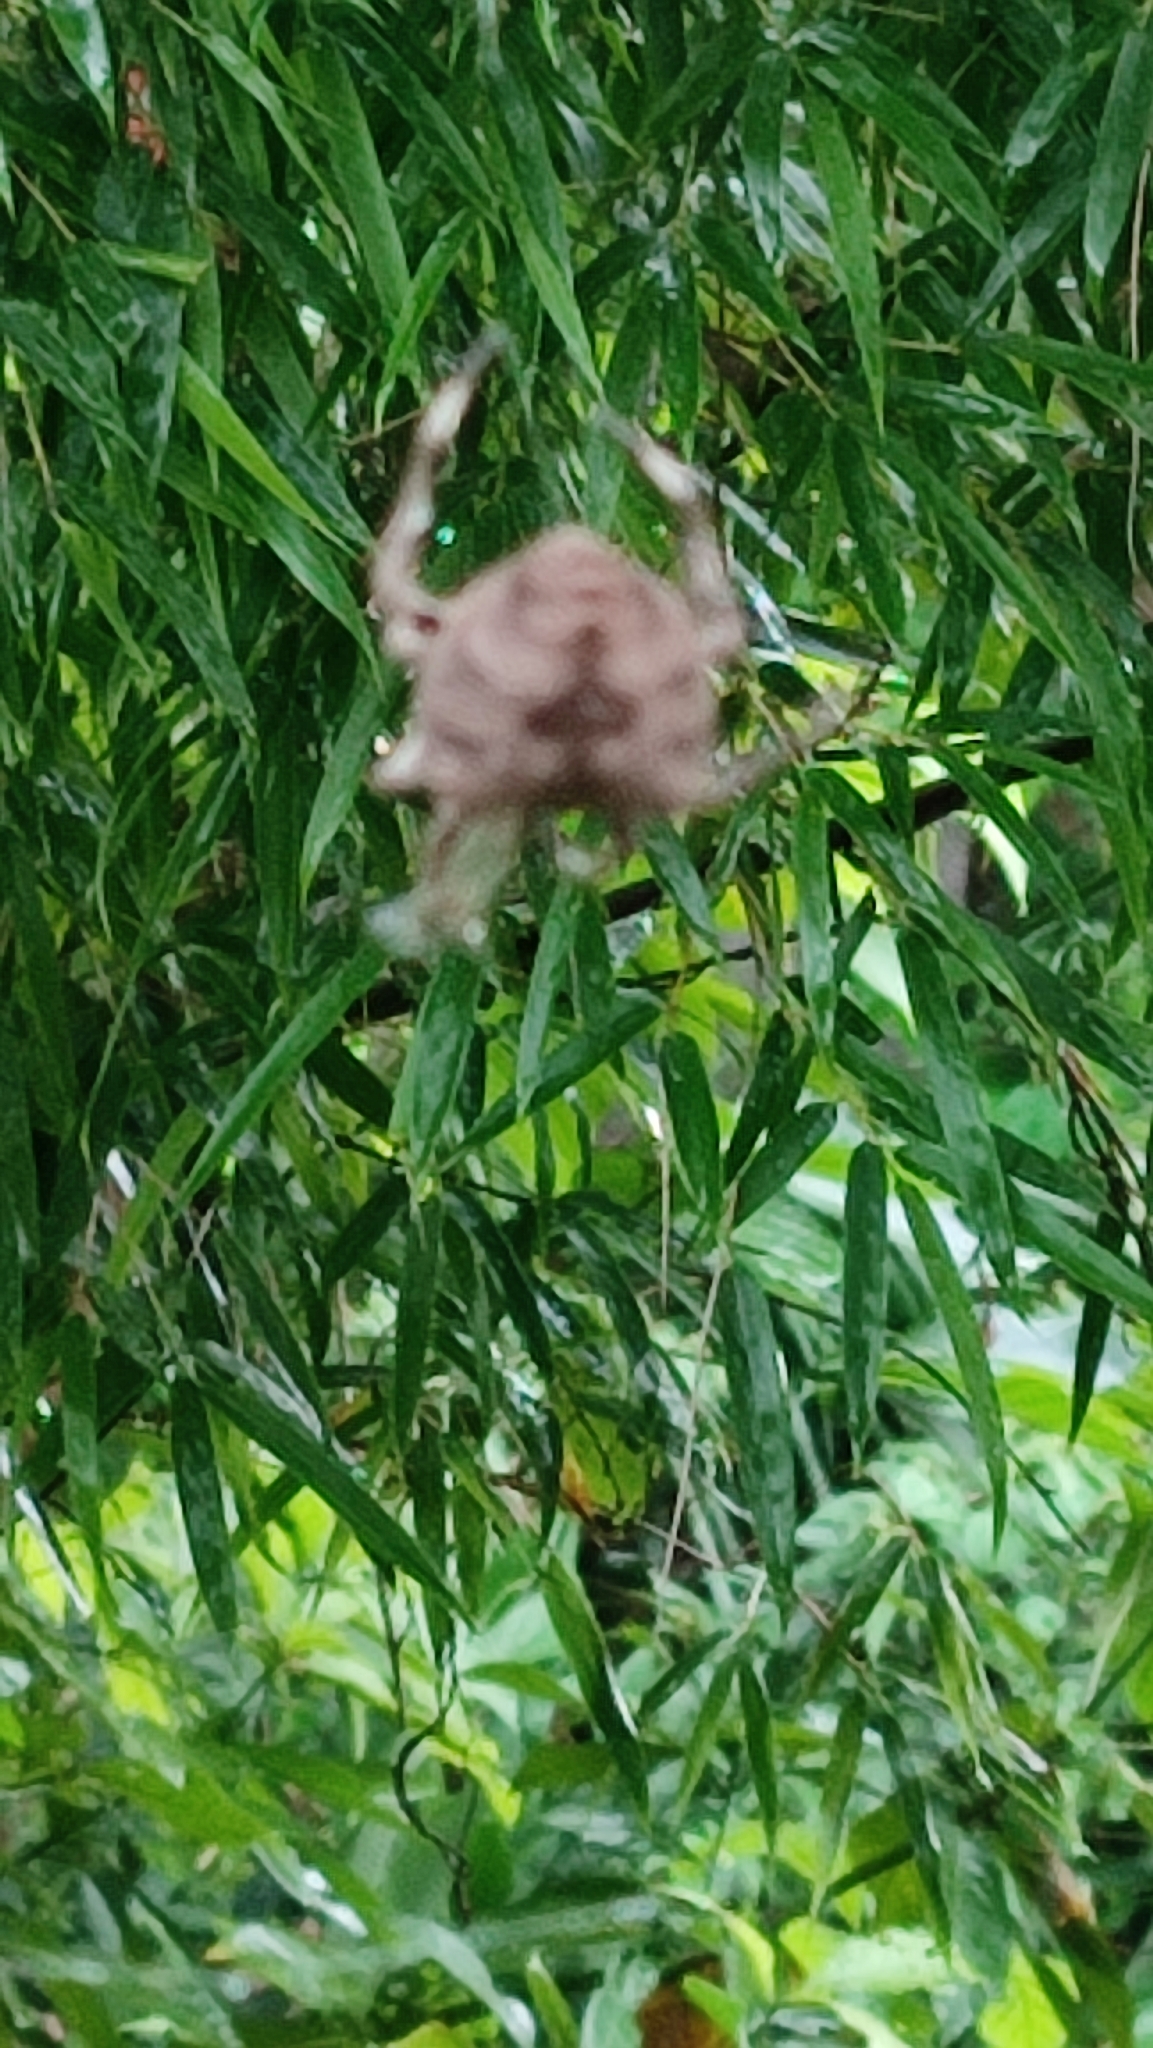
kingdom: Animalia
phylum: Arthropoda
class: Arachnida
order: Araneae
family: Araneidae
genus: Parawixia
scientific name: Parawixia dehaani
